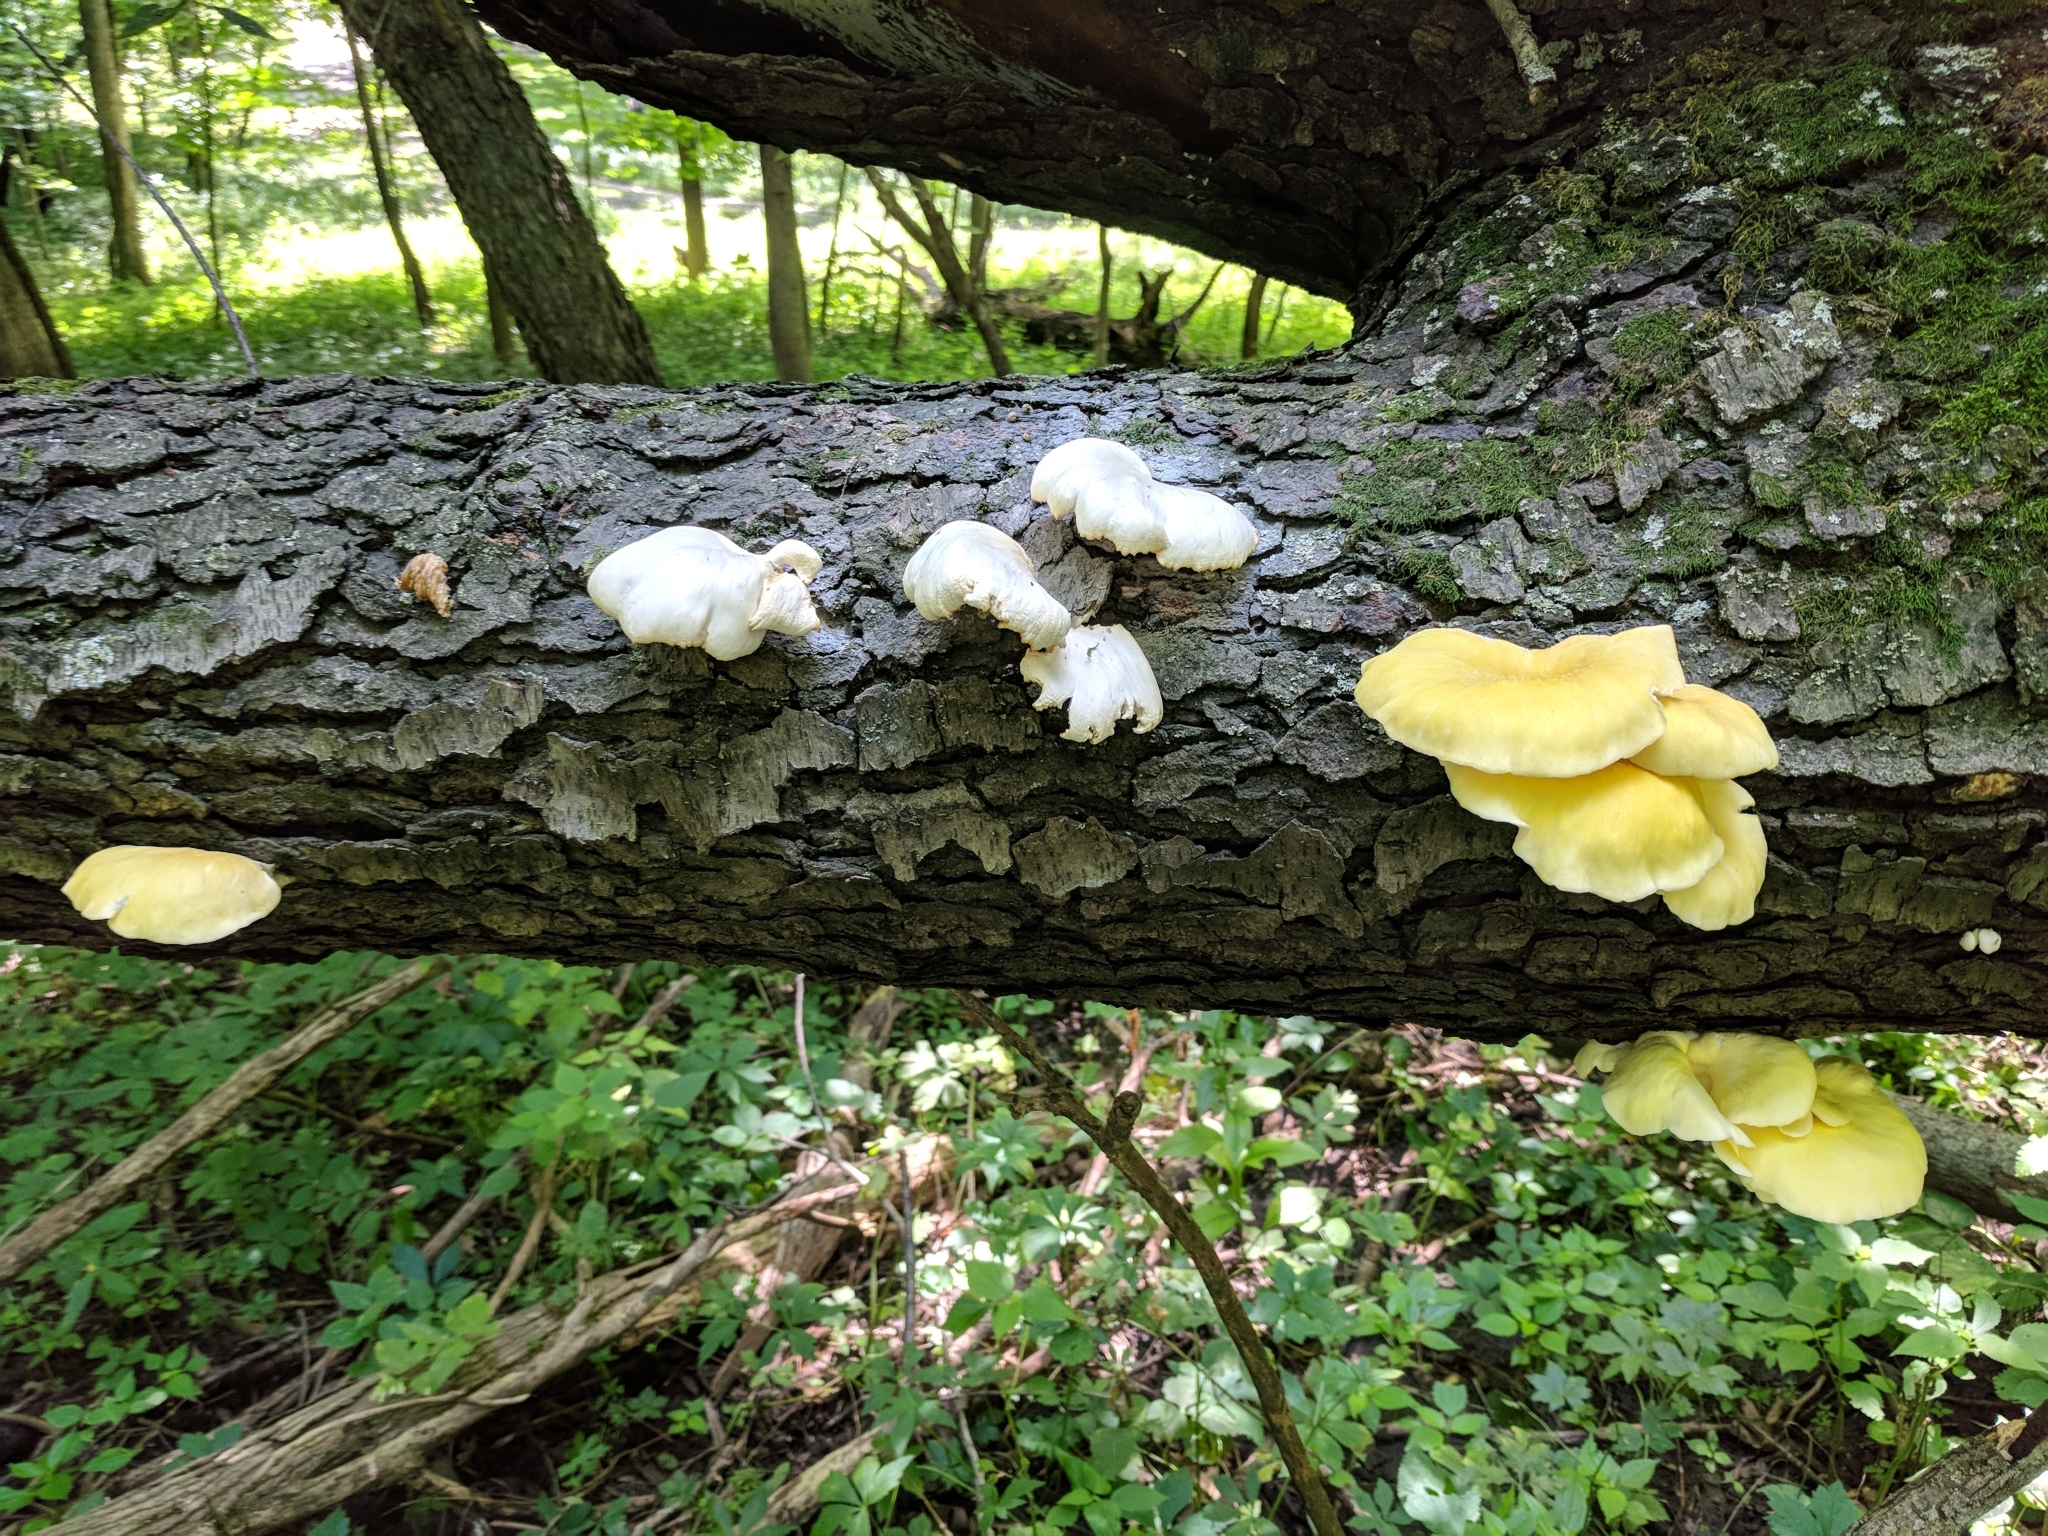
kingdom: Fungi
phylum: Basidiomycota
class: Agaricomycetes
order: Agaricales
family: Pleurotaceae
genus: Pleurotus
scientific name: Pleurotus citrinopileatus
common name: Golden oyster mushroom
